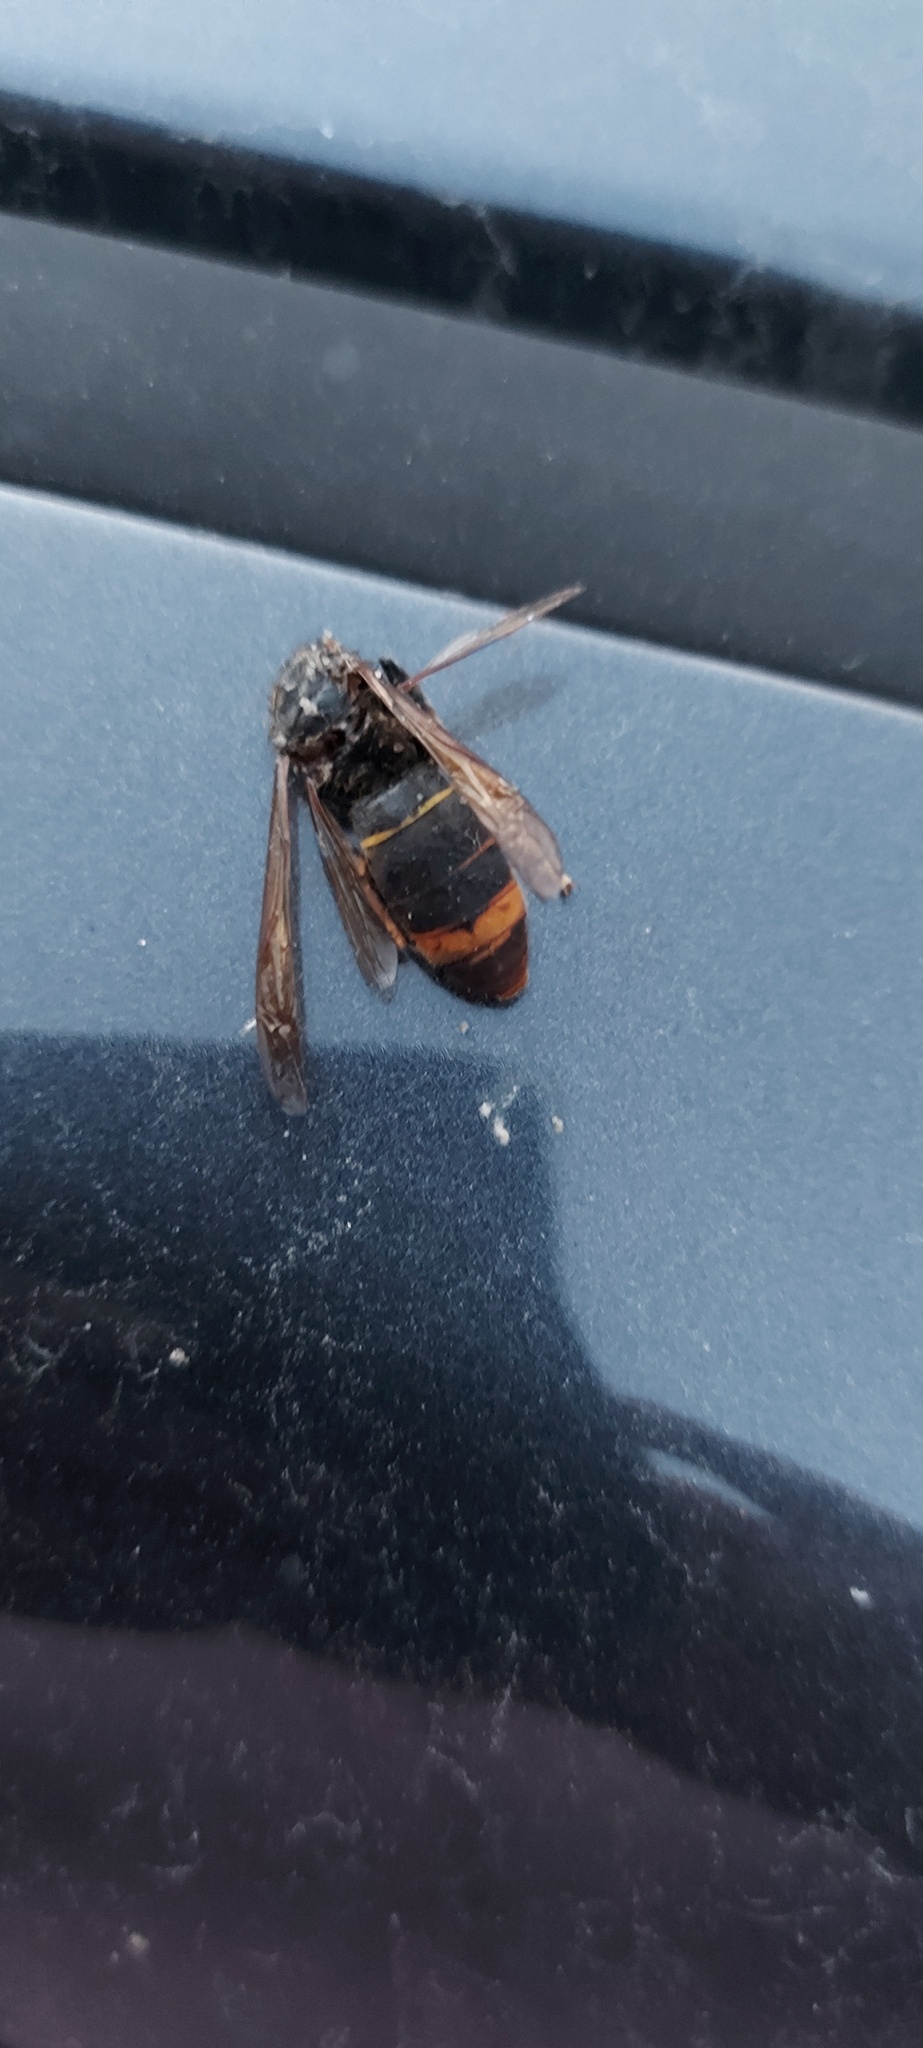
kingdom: Animalia
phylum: Arthropoda
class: Insecta
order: Hymenoptera
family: Vespidae
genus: Vespa
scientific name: Vespa velutina
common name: Asian hornet
